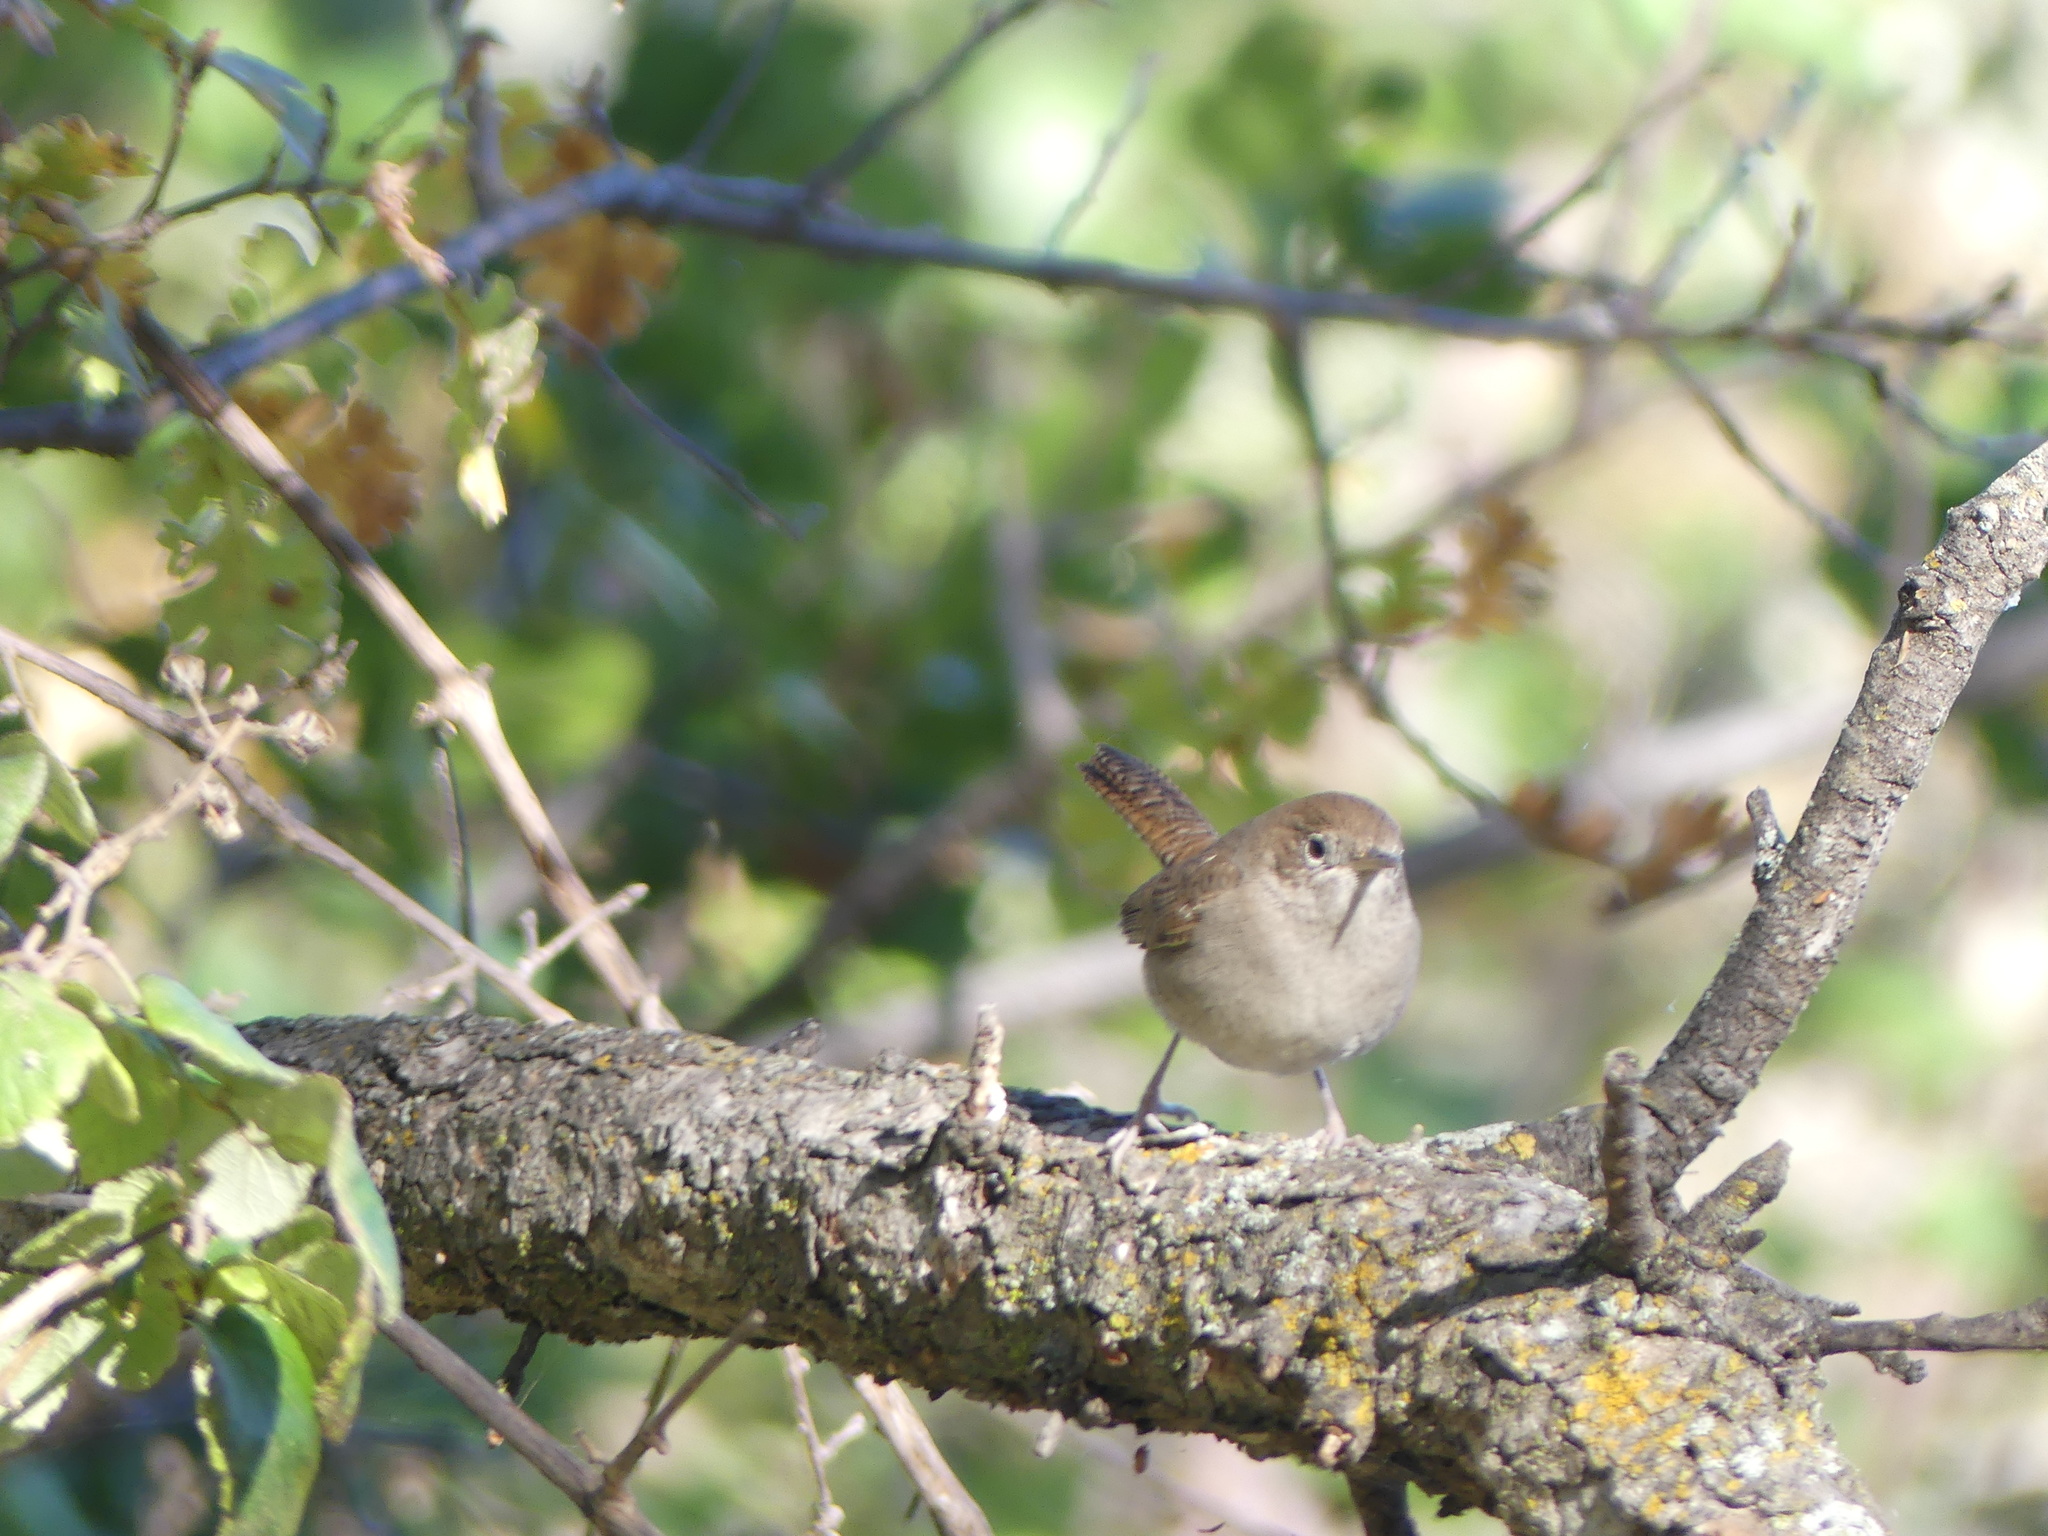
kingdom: Animalia
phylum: Chordata
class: Aves
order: Passeriformes
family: Troglodytidae
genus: Troglodytes
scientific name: Troglodytes aedon
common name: House wren
